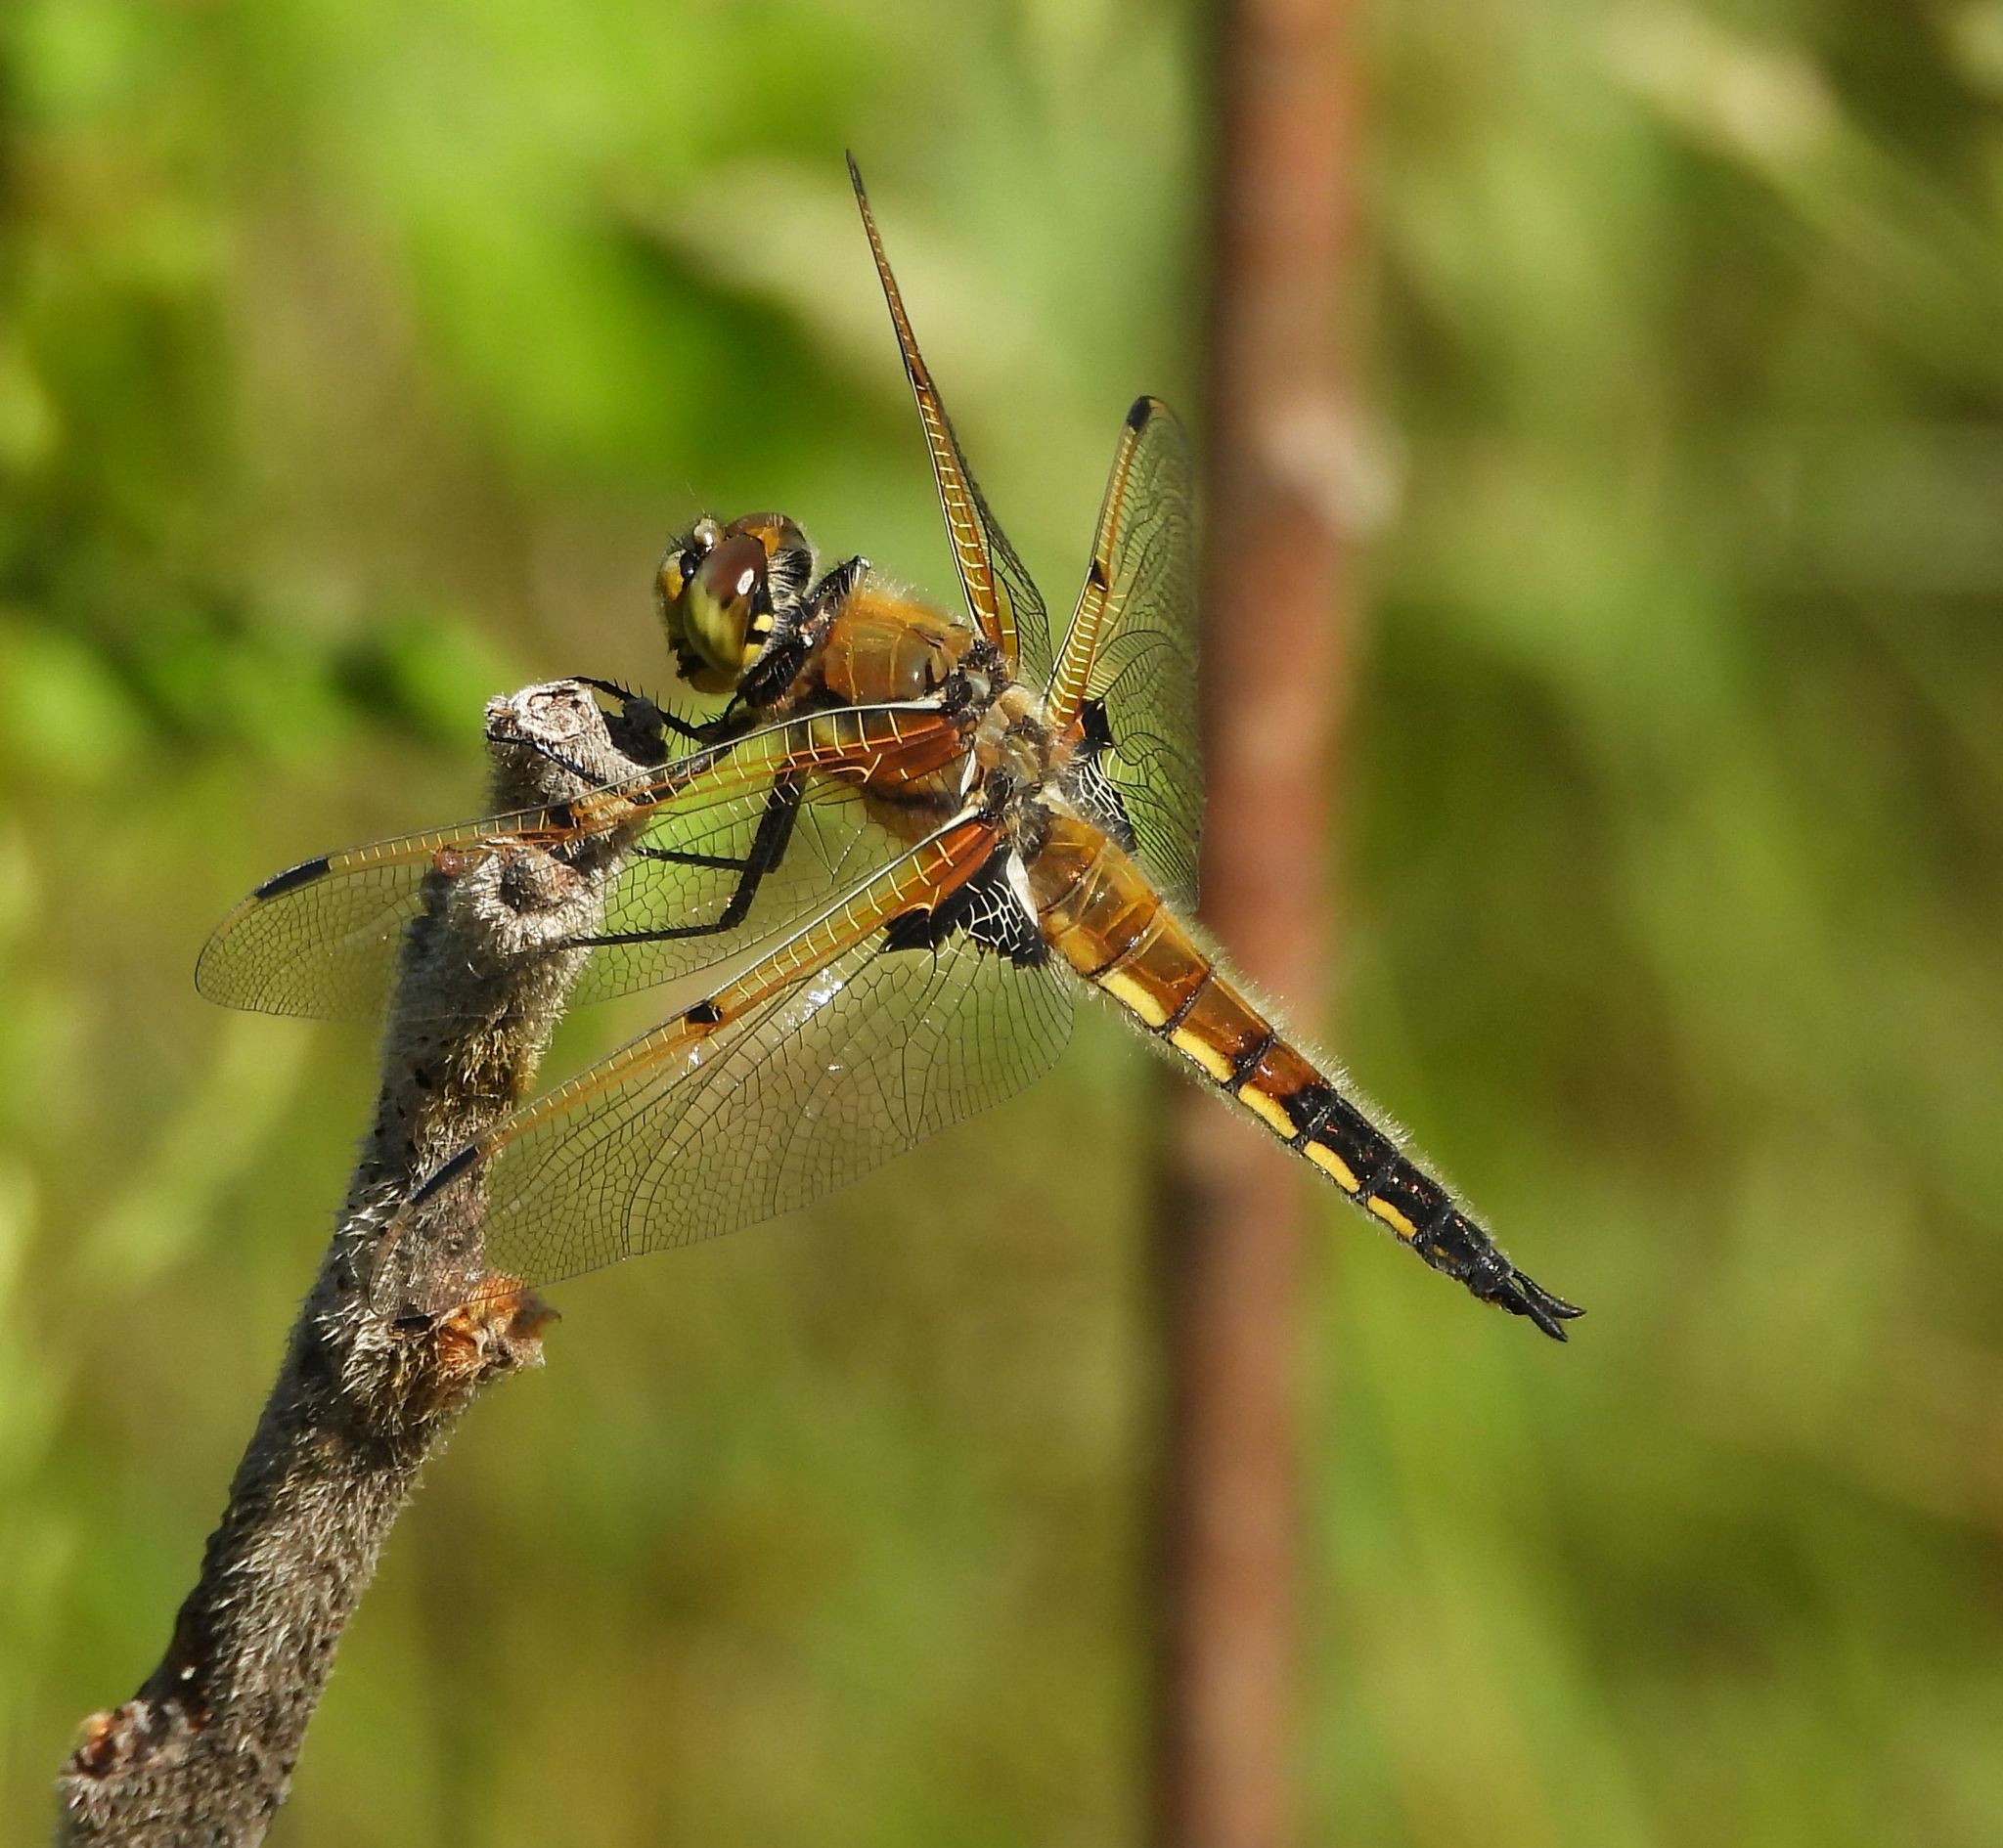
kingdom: Animalia
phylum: Arthropoda
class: Insecta
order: Odonata
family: Libellulidae
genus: Libellula
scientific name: Libellula quadrimaculata
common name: Four-spotted chaser
